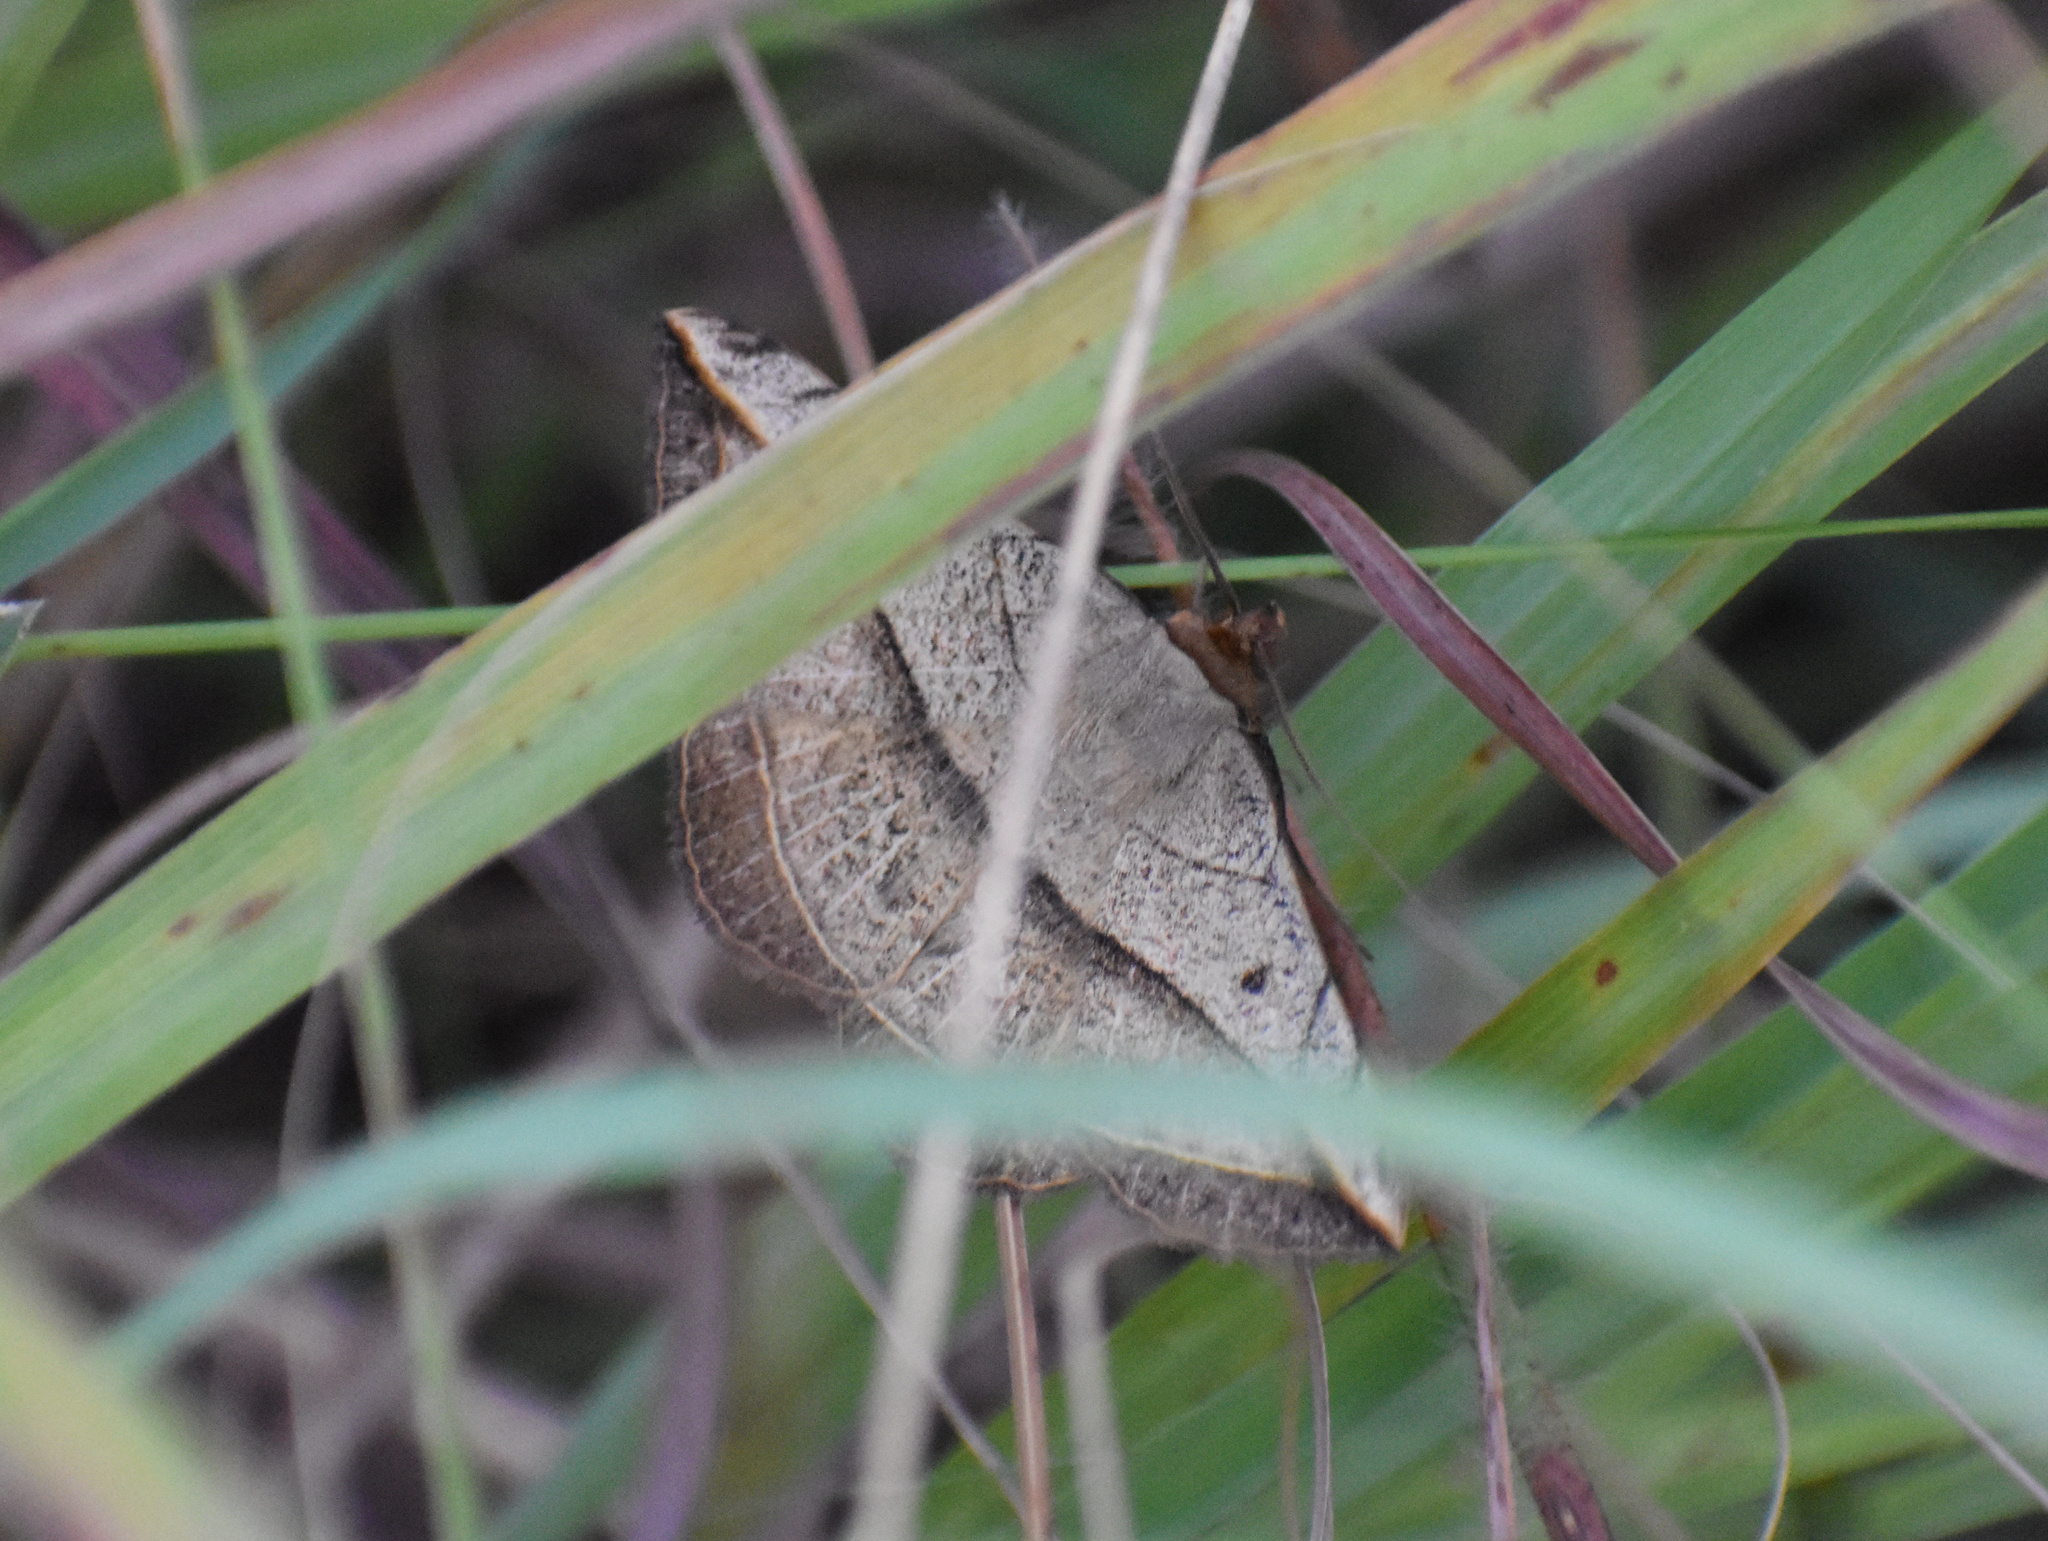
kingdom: Animalia
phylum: Arthropoda
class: Insecta
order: Lepidoptera
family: Erebidae
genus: Entomogramma
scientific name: Entomogramma pardus
